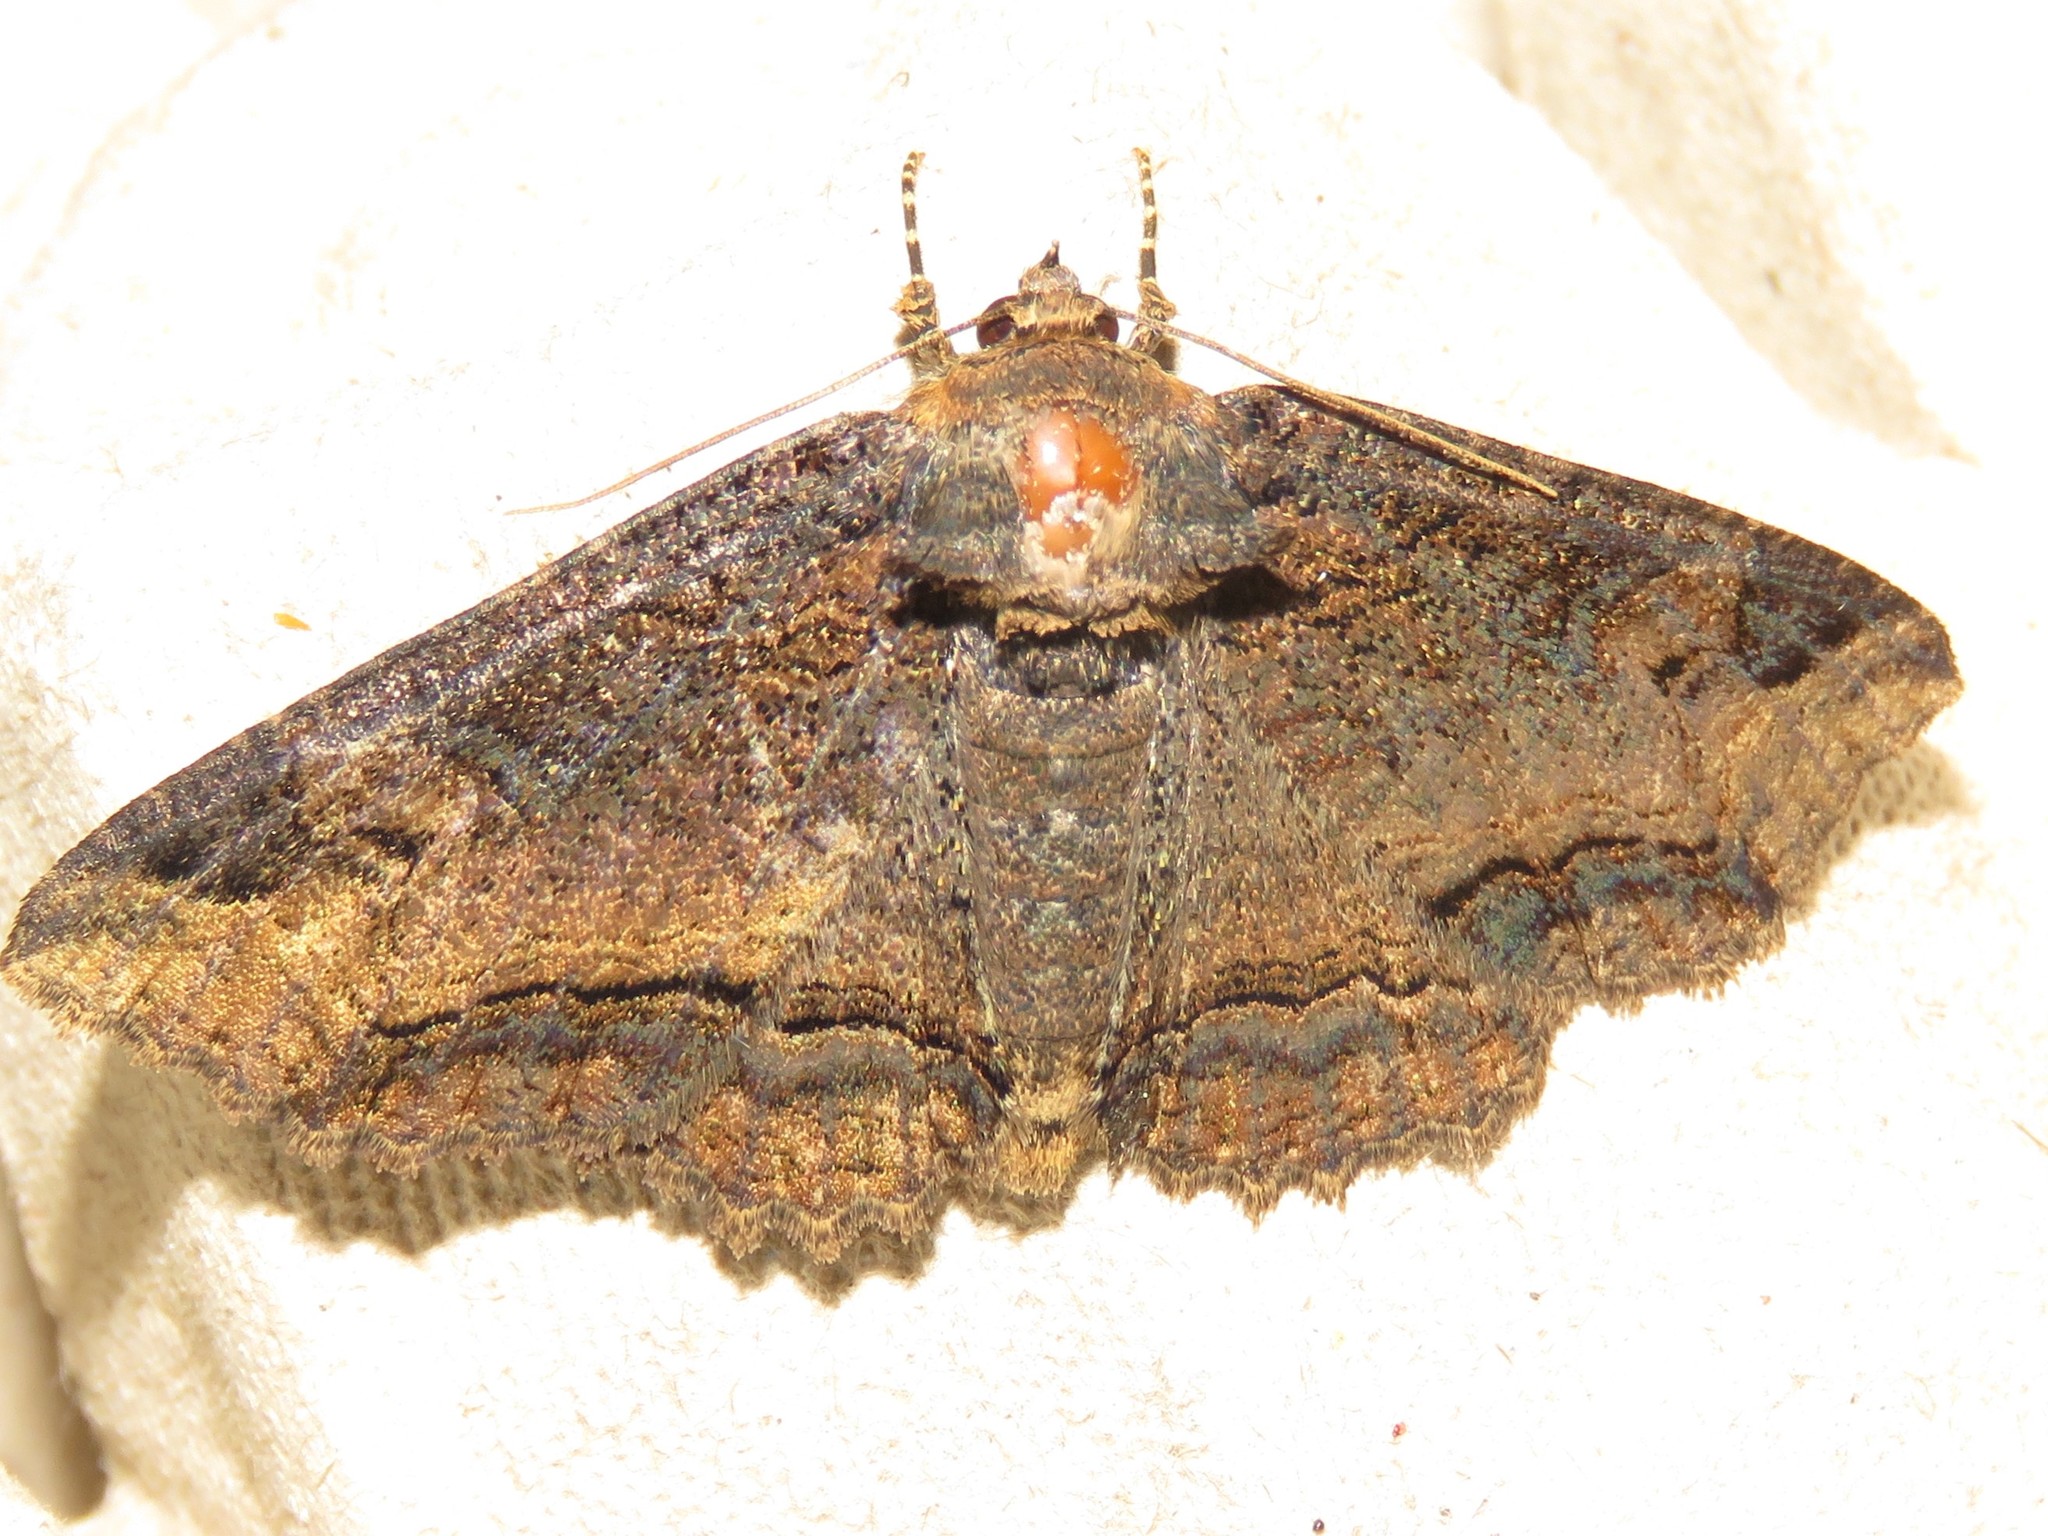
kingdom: Animalia
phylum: Arthropoda
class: Insecta
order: Lepidoptera
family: Erebidae
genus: Zale
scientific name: Zale minerea
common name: Colorful zale moth
